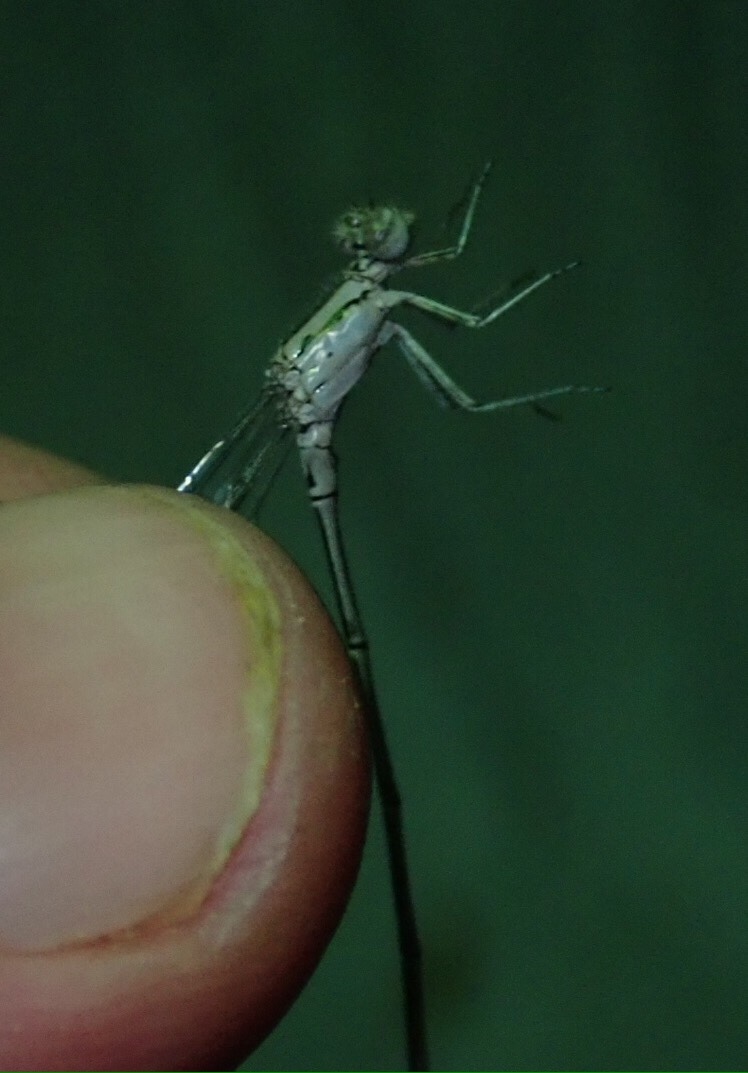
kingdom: Animalia
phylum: Arthropoda
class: Insecta
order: Odonata
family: Coenagrionidae
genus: Pseudagrion
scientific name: Pseudagrion coeleste
